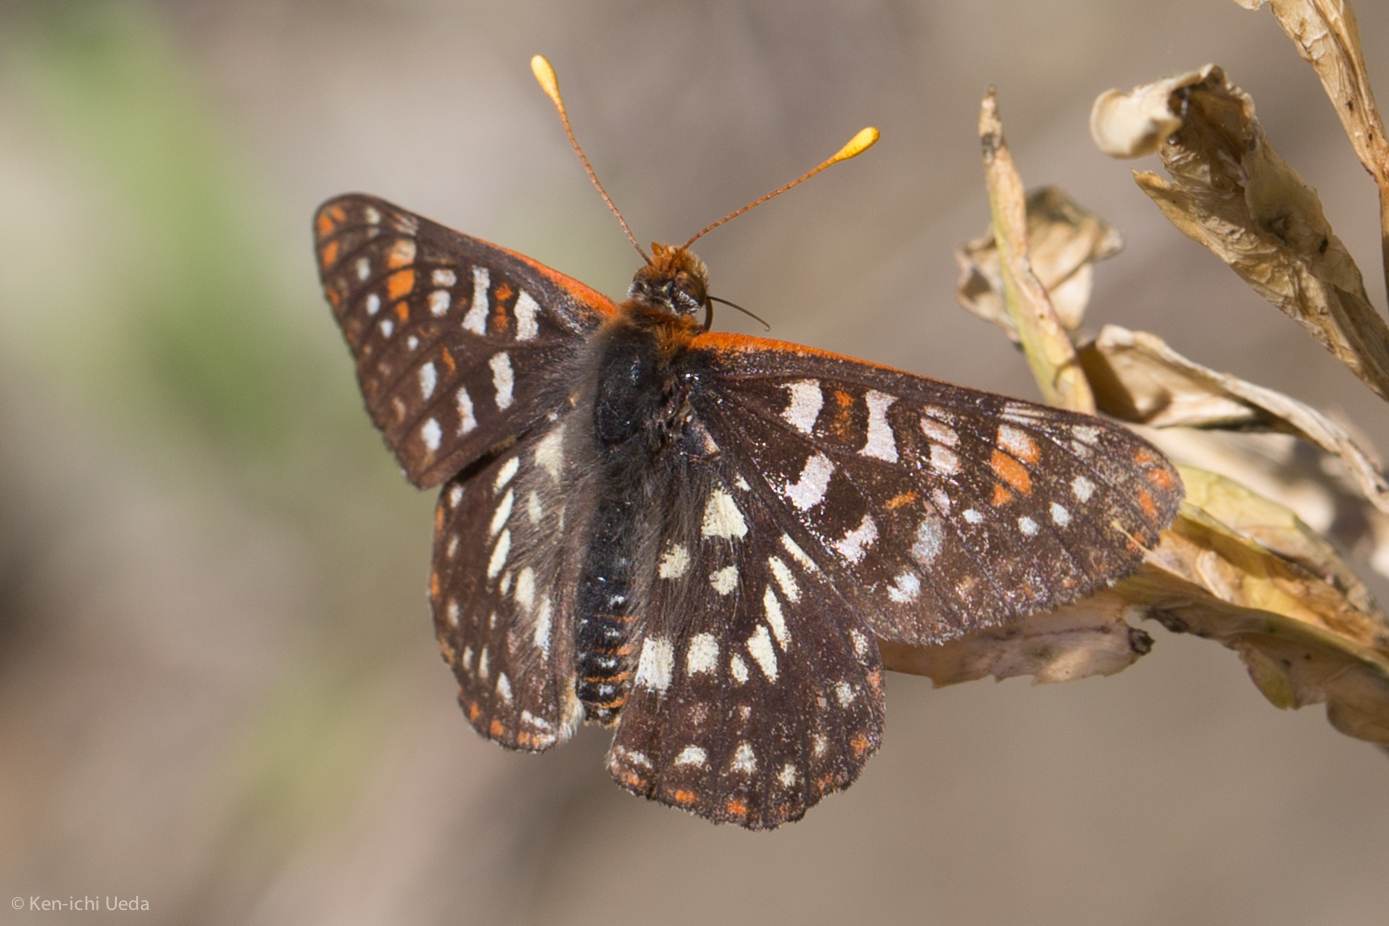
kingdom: Animalia
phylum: Arthropoda
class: Insecta
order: Lepidoptera
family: Nymphalidae
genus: Occidryas
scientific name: Occidryas chalcedona
